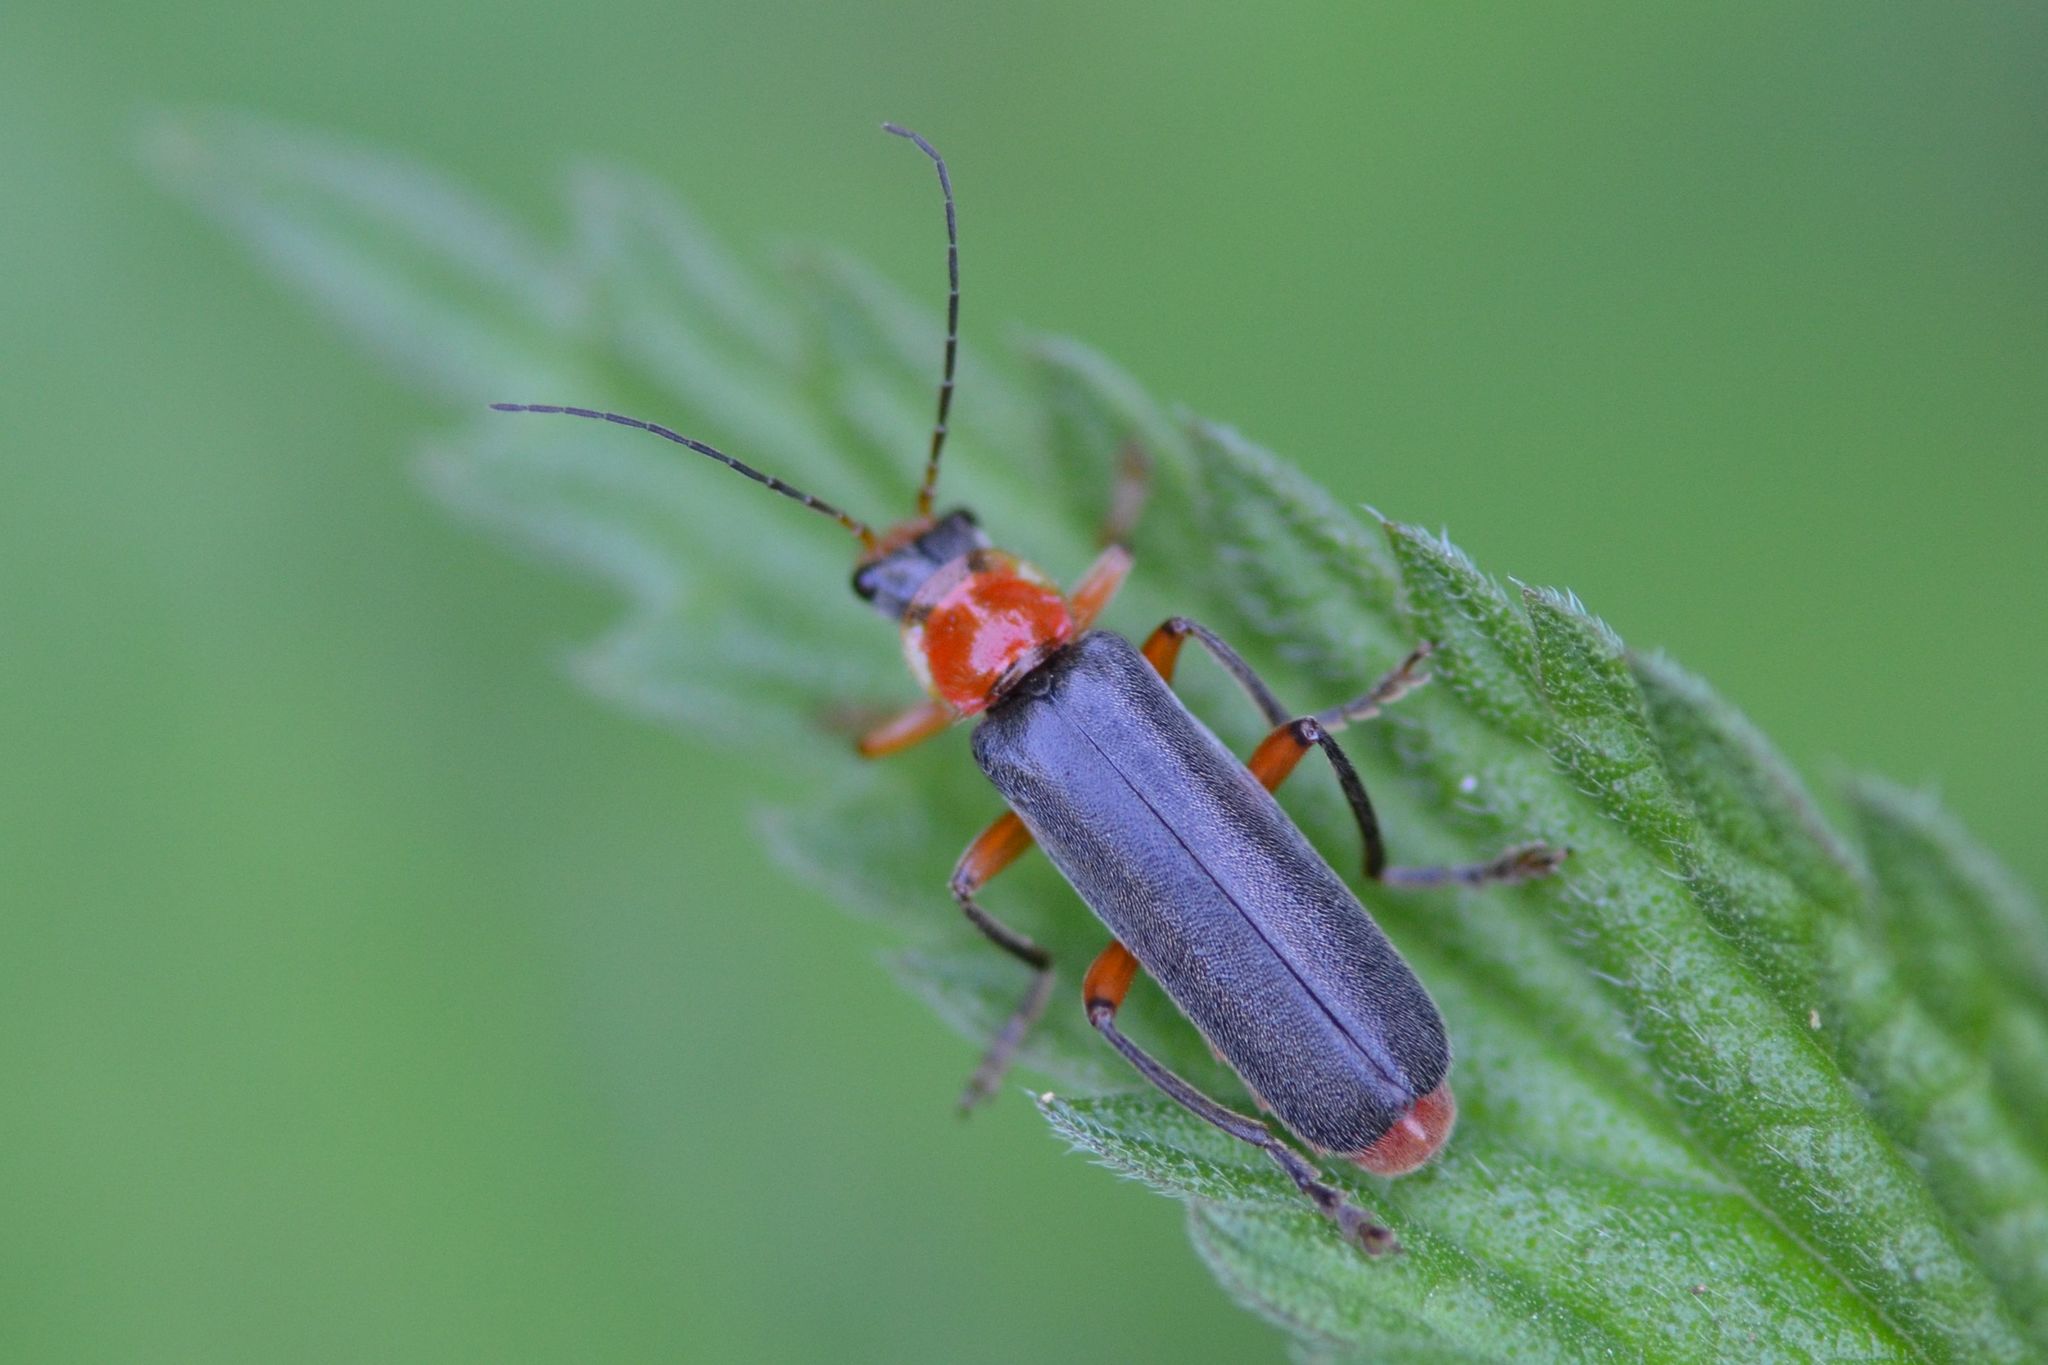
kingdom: Animalia
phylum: Arthropoda
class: Insecta
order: Coleoptera
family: Cantharidae
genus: Cantharis
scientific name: Cantharis pellucida
